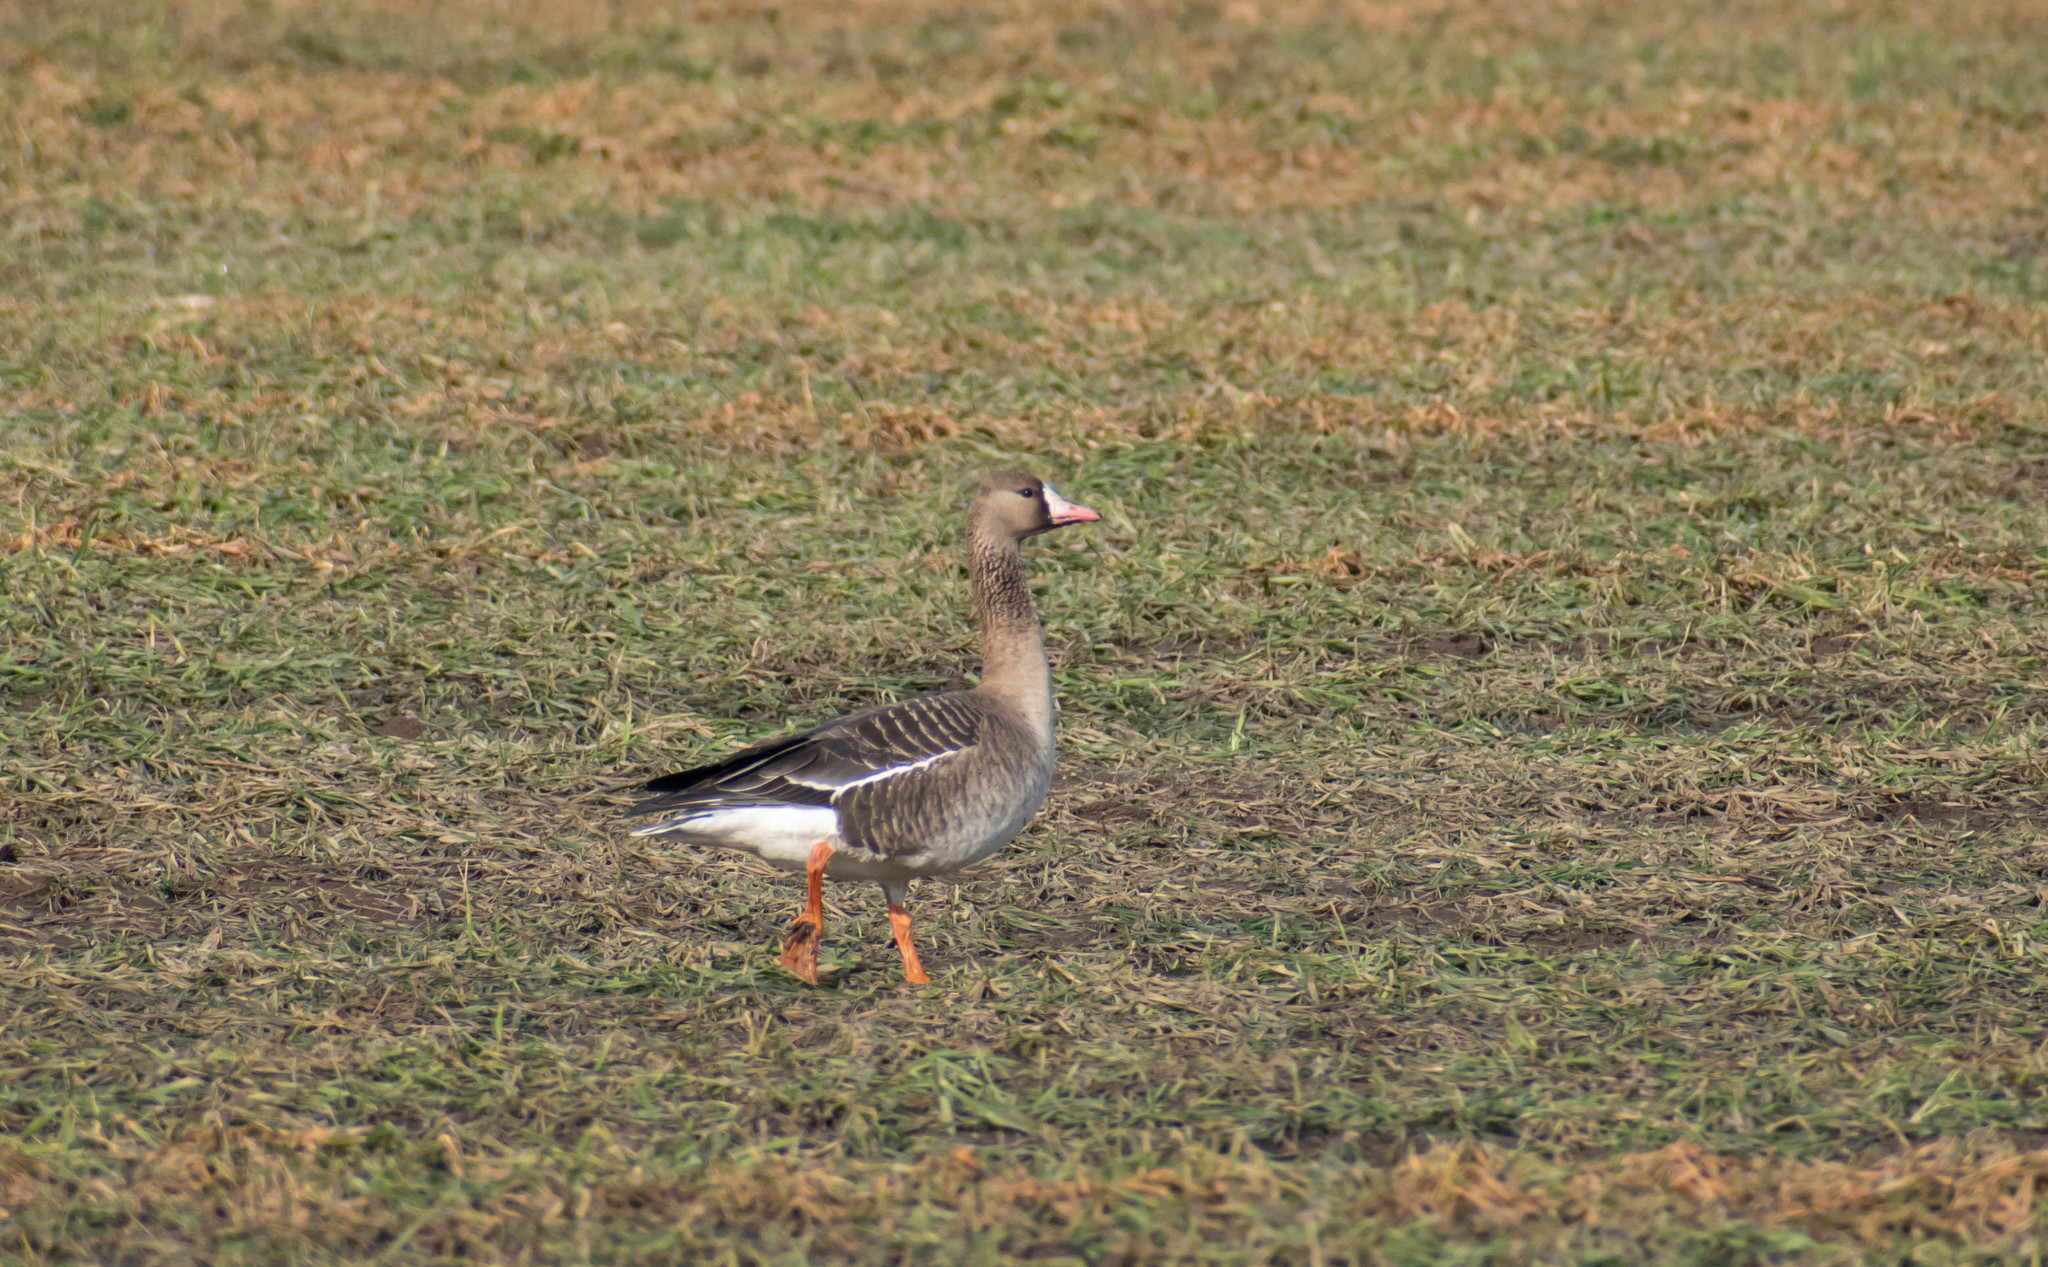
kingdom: Animalia
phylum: Chordata
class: Aves
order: Anseriformes
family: Anatidae
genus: Anser
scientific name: Anser albifrons
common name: Greater white-fronted goose
